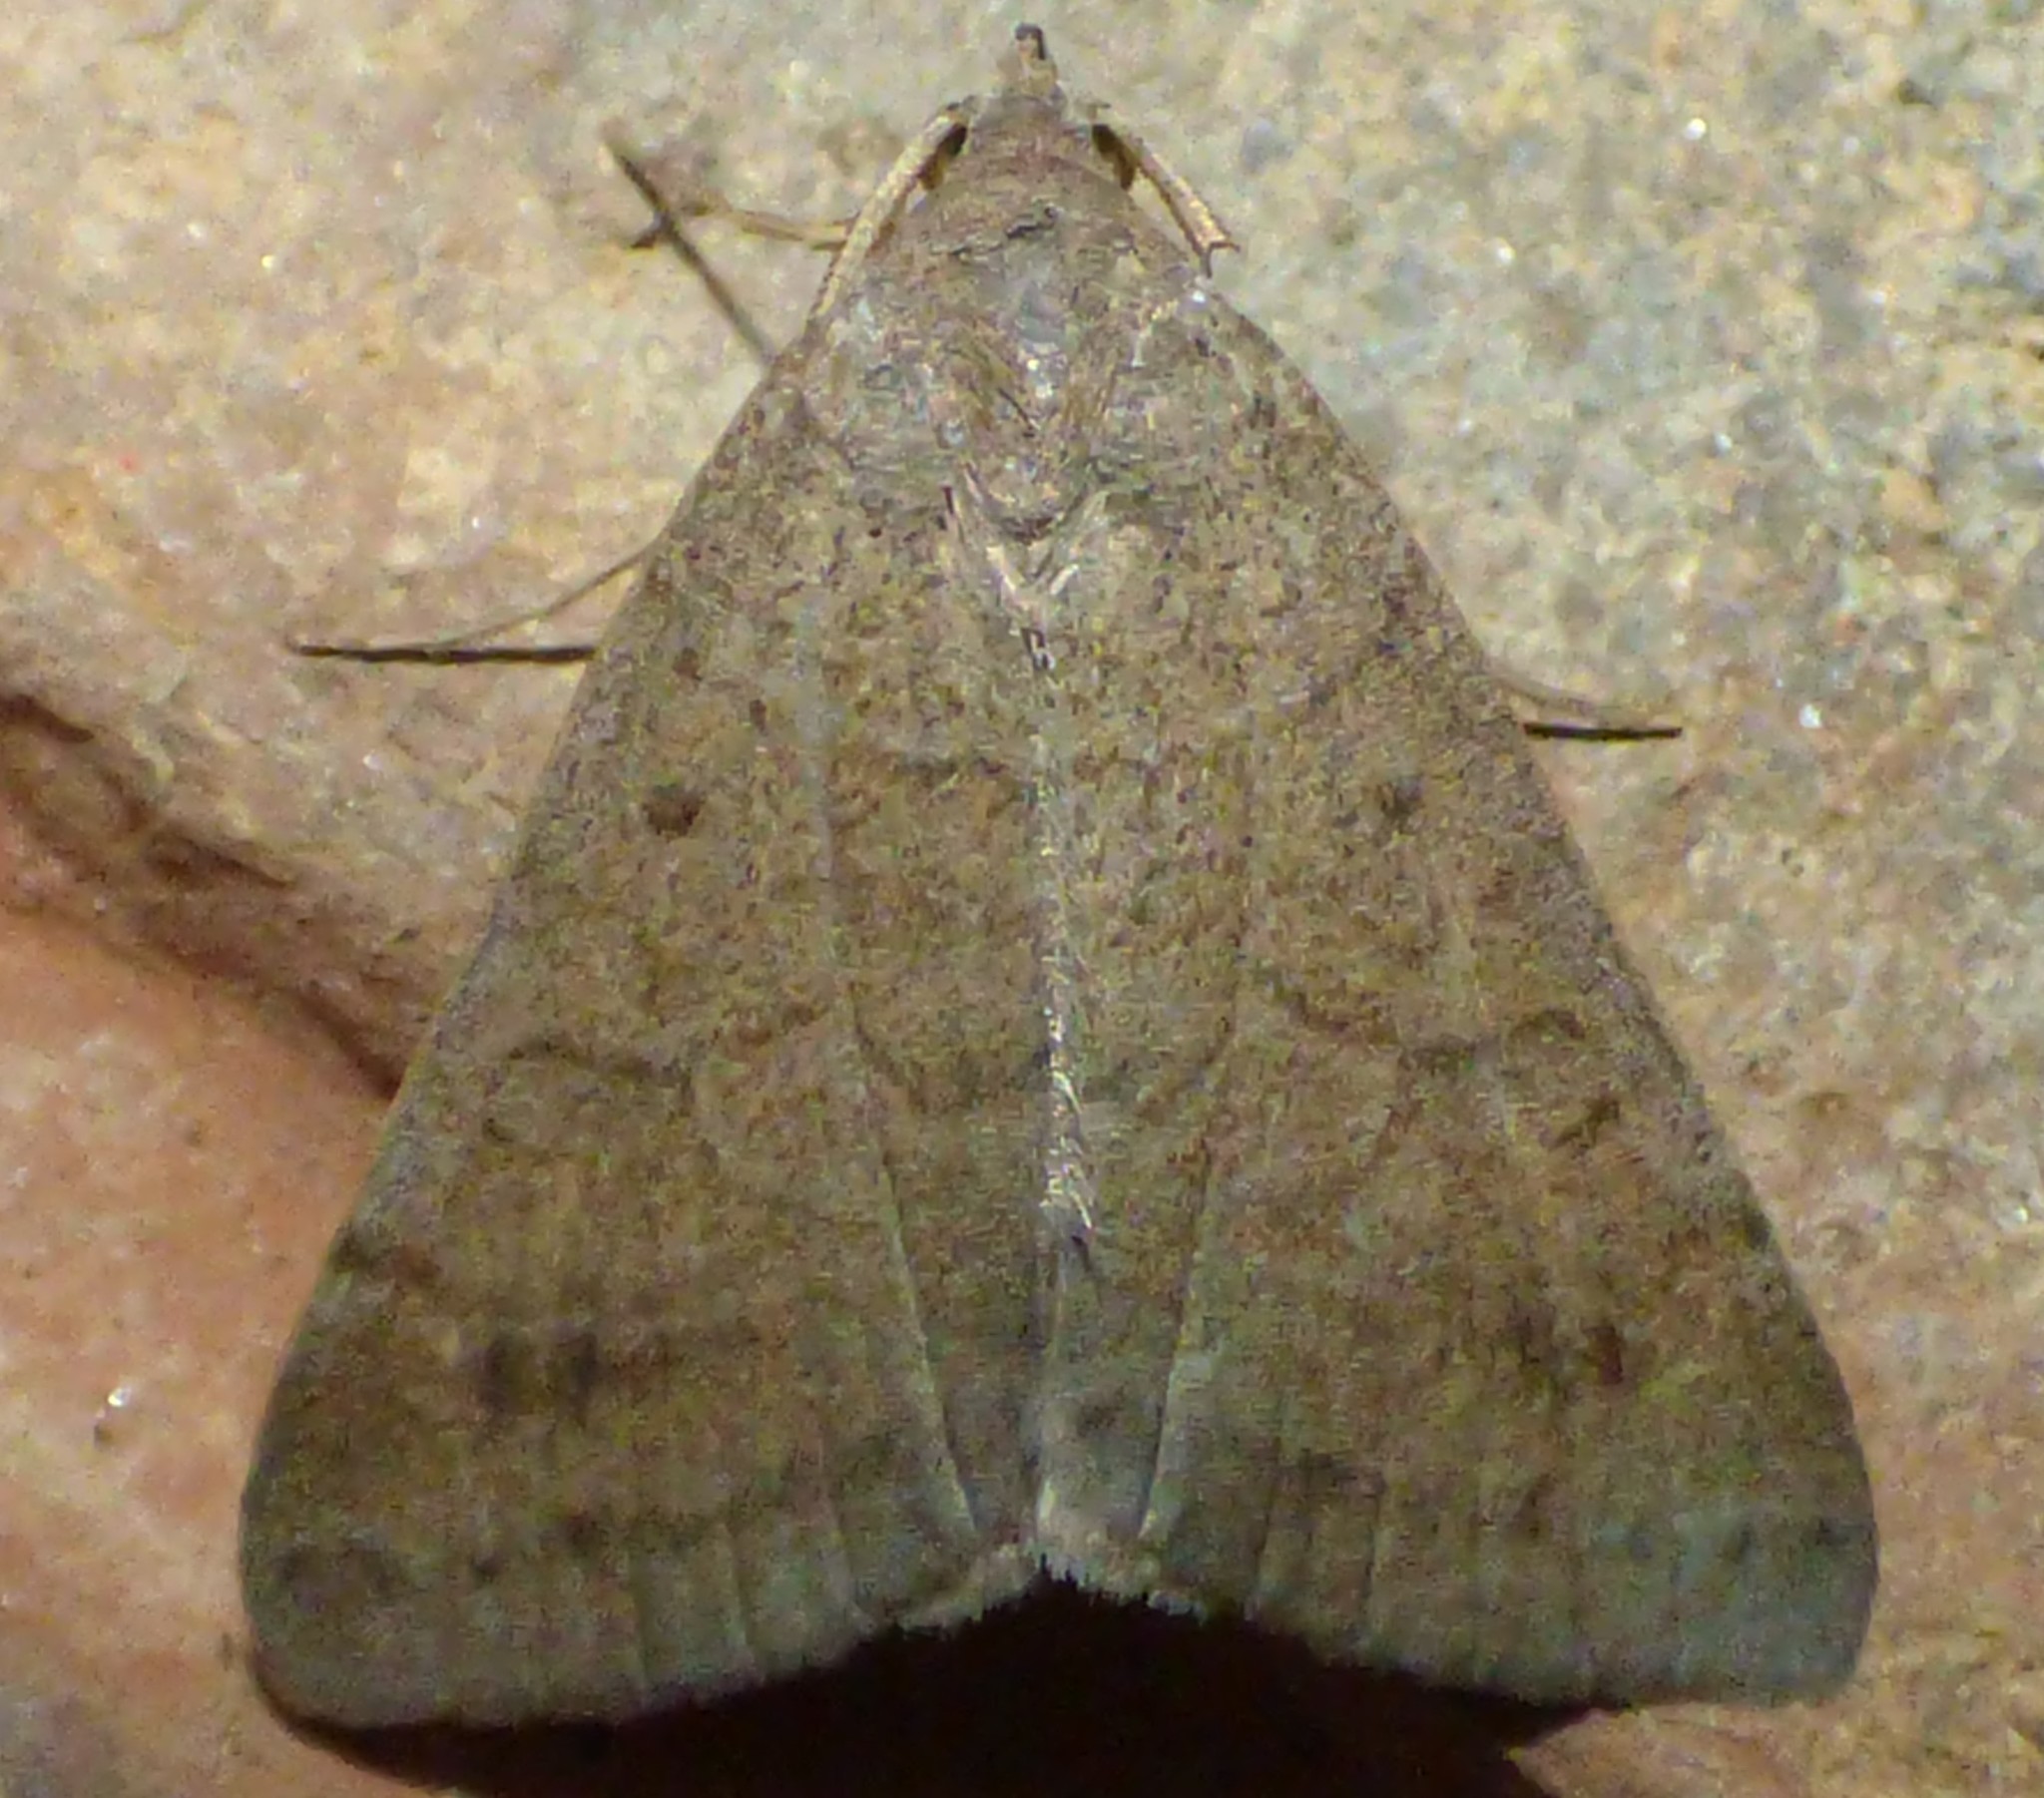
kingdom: Animalia
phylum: Arthropoda
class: Insecta
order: Lepidoptera
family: Erebidae
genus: Caenurgia
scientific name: Caenurgia chloropha
